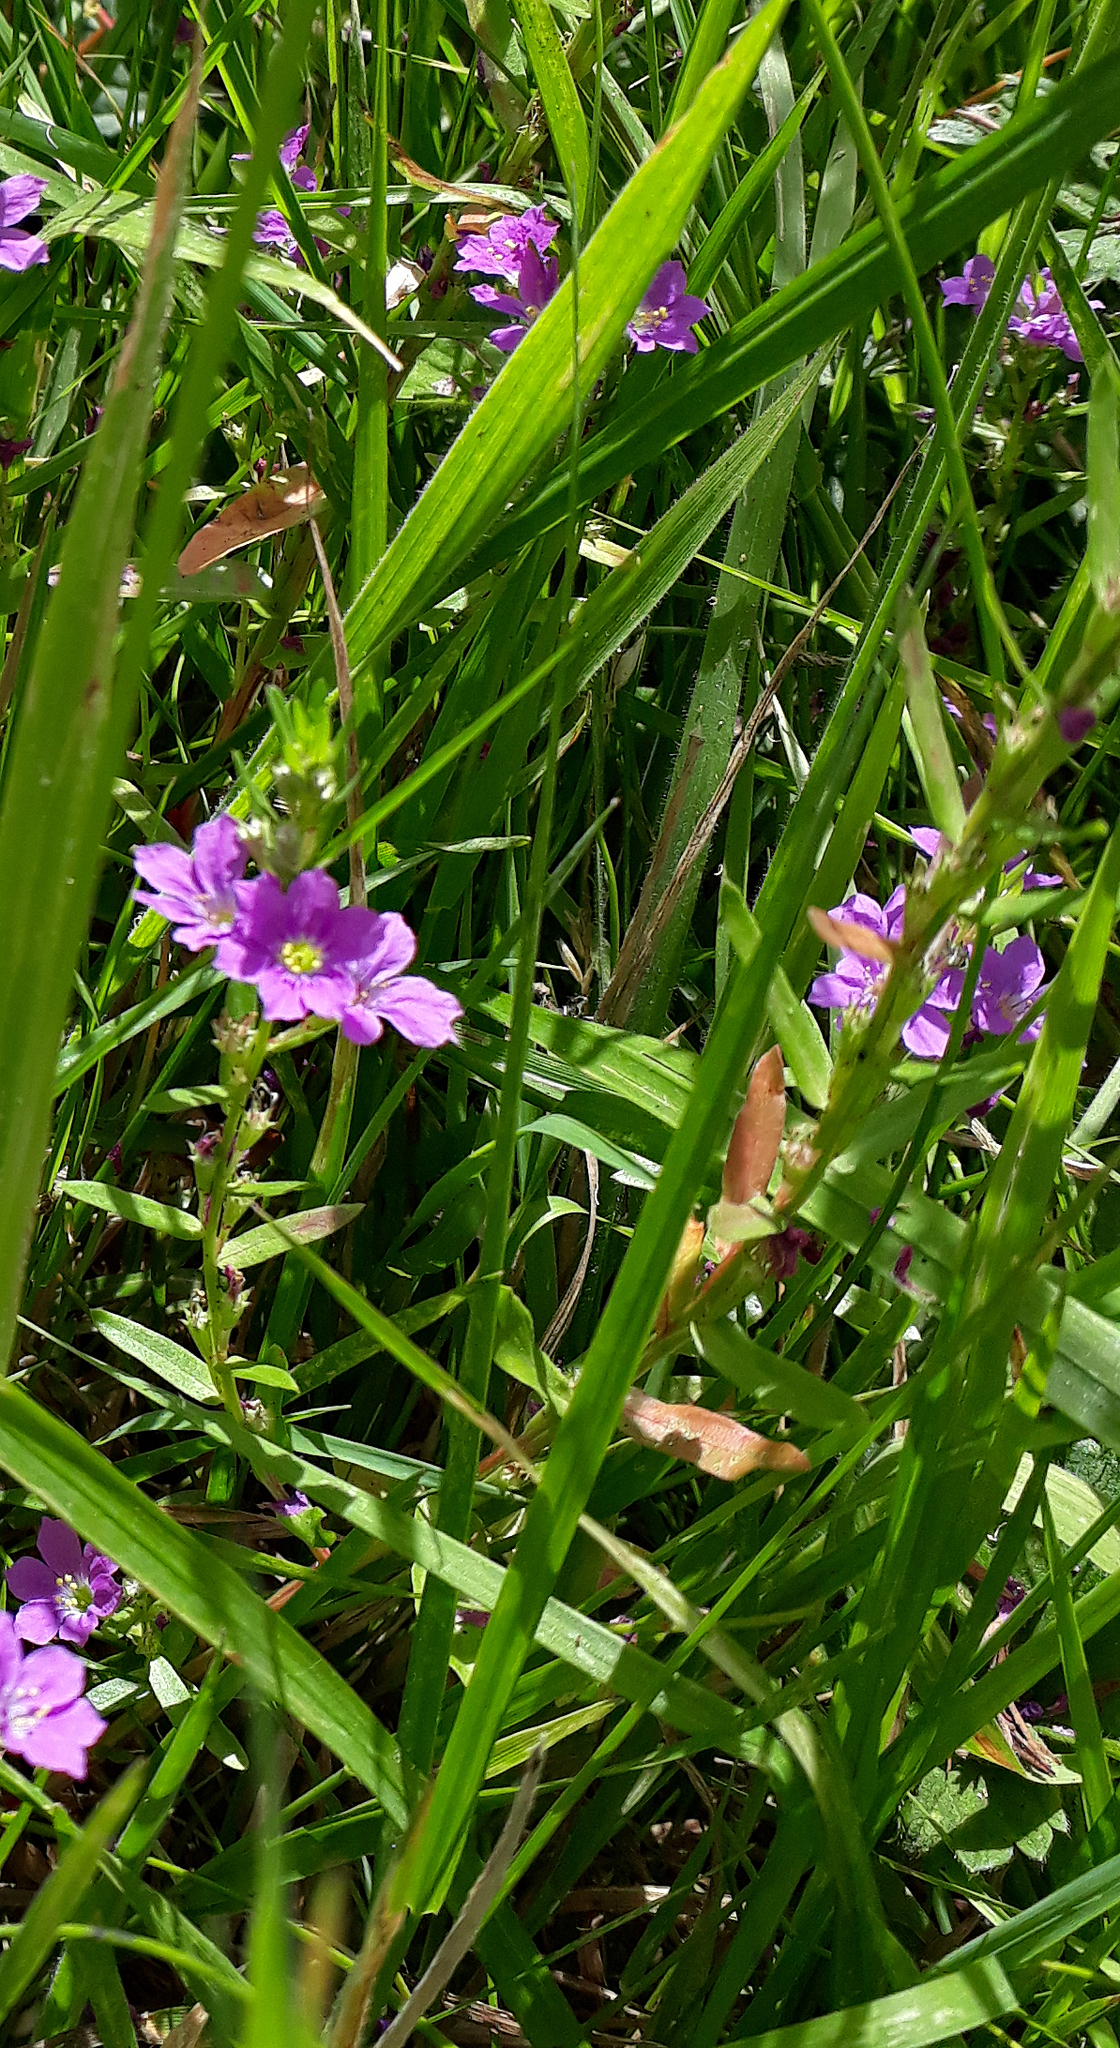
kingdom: Plantae
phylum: Tracheophyta
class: Magnoliopsida
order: Myrtales
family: Lythraceae
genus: Lythrum
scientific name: Lythrum junceum
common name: False grass-poly
